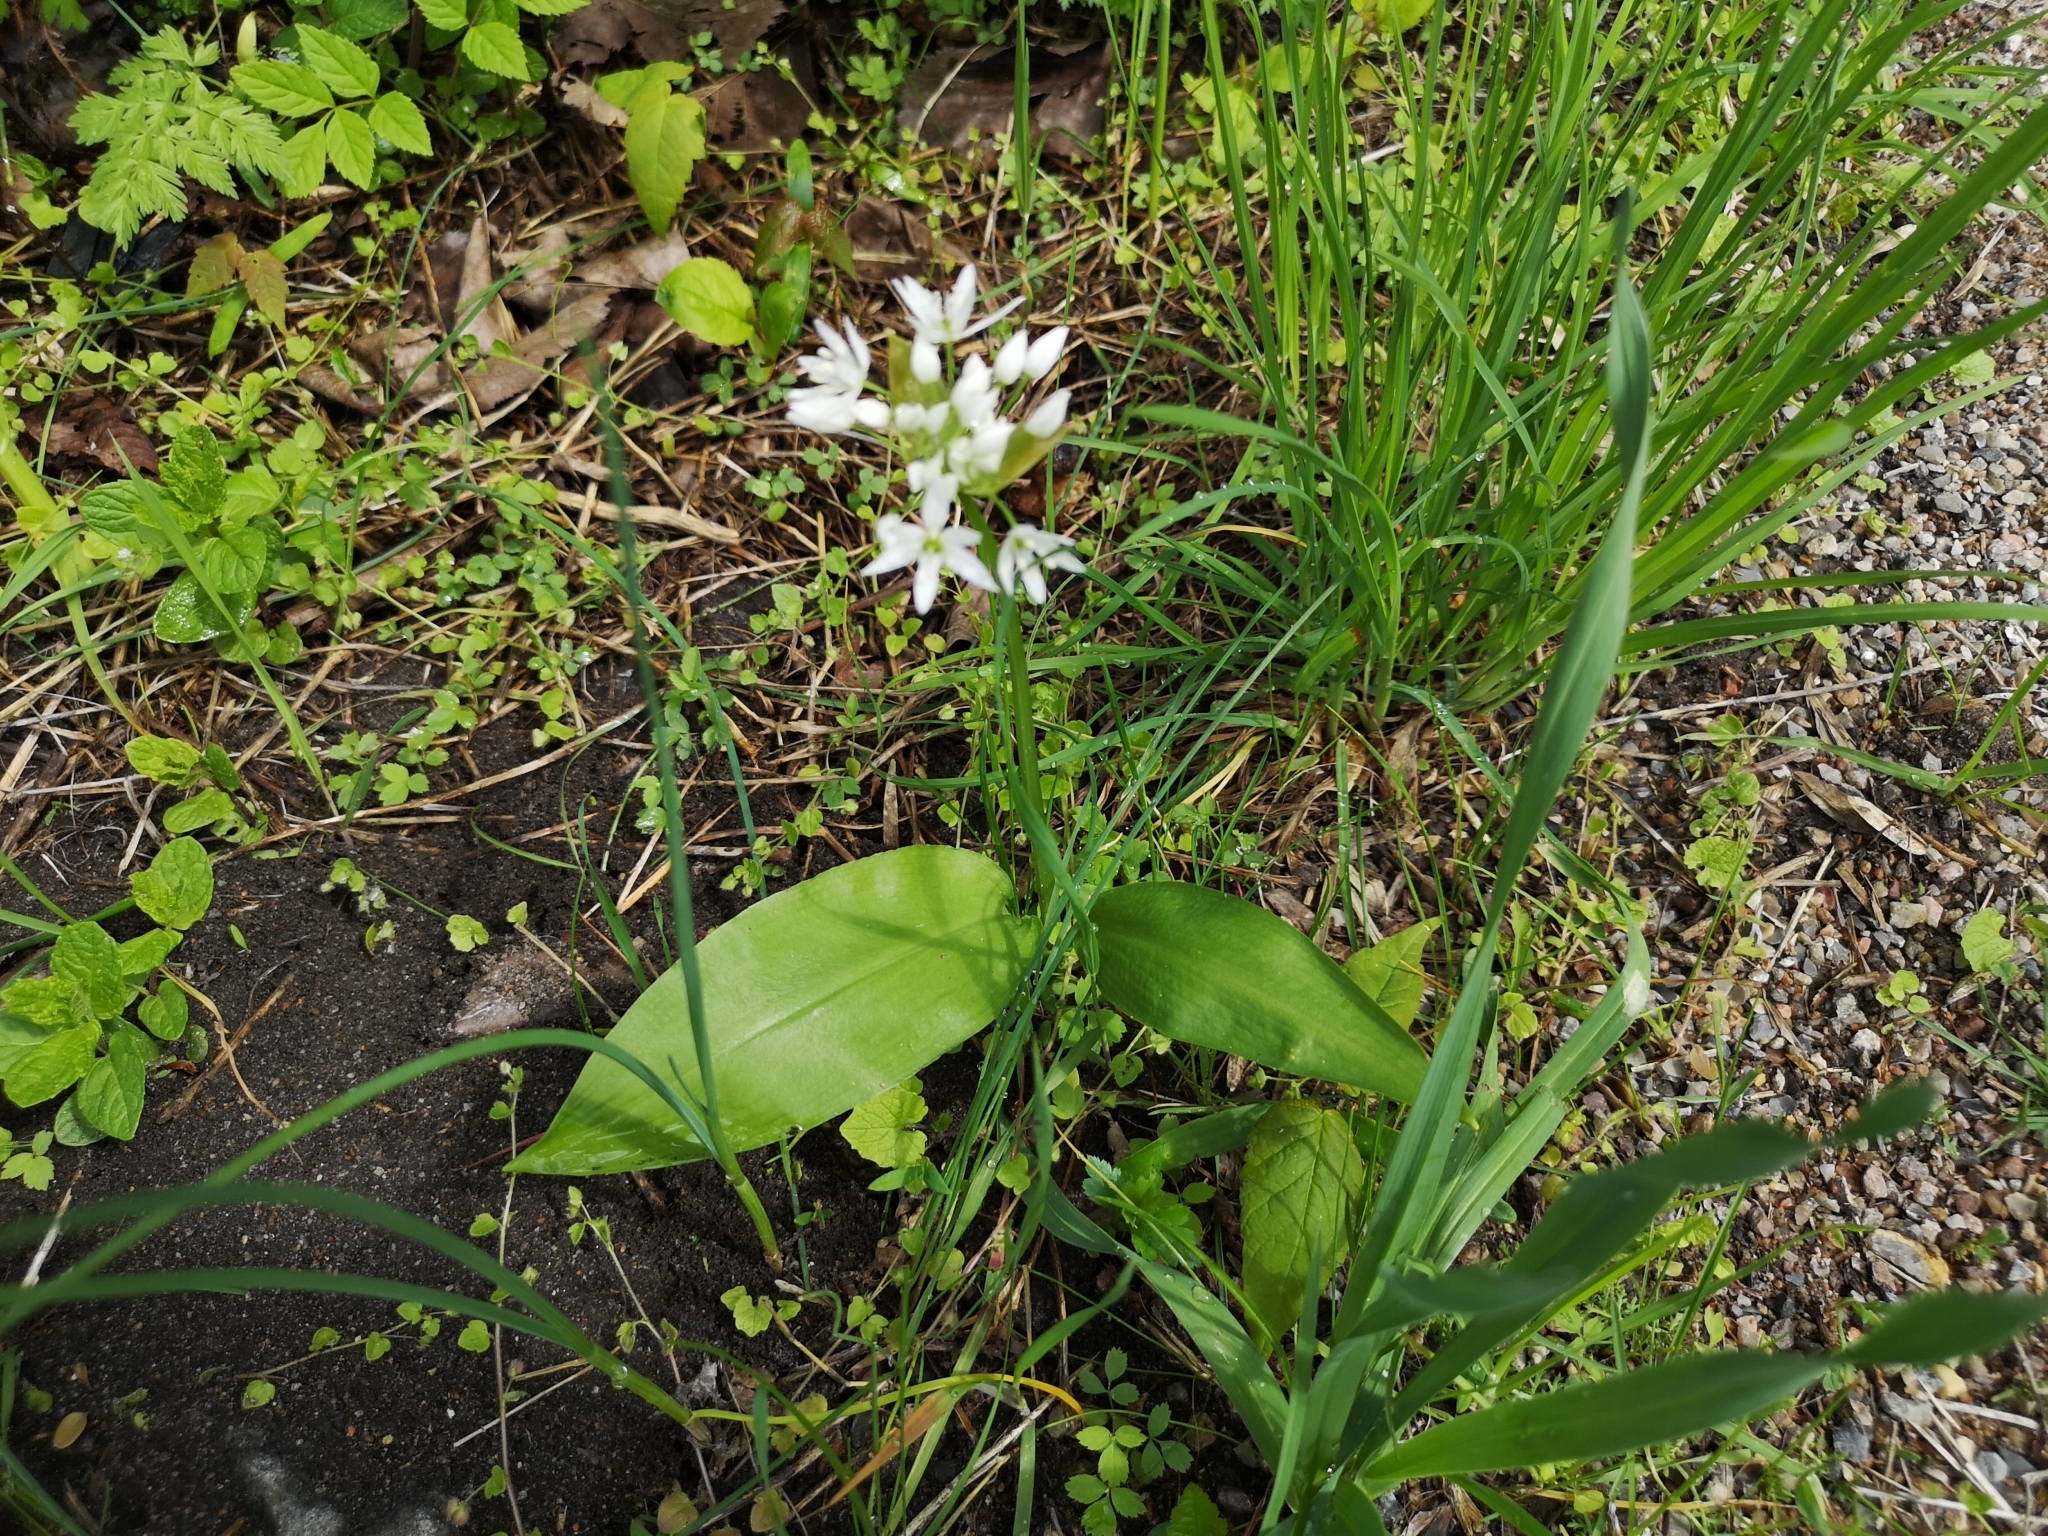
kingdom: Plantae
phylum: Tracheophyta
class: Liliopsida
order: Asparagales
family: Amaryllidaceae
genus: Allium
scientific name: Allium ursinum
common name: Ramsons
